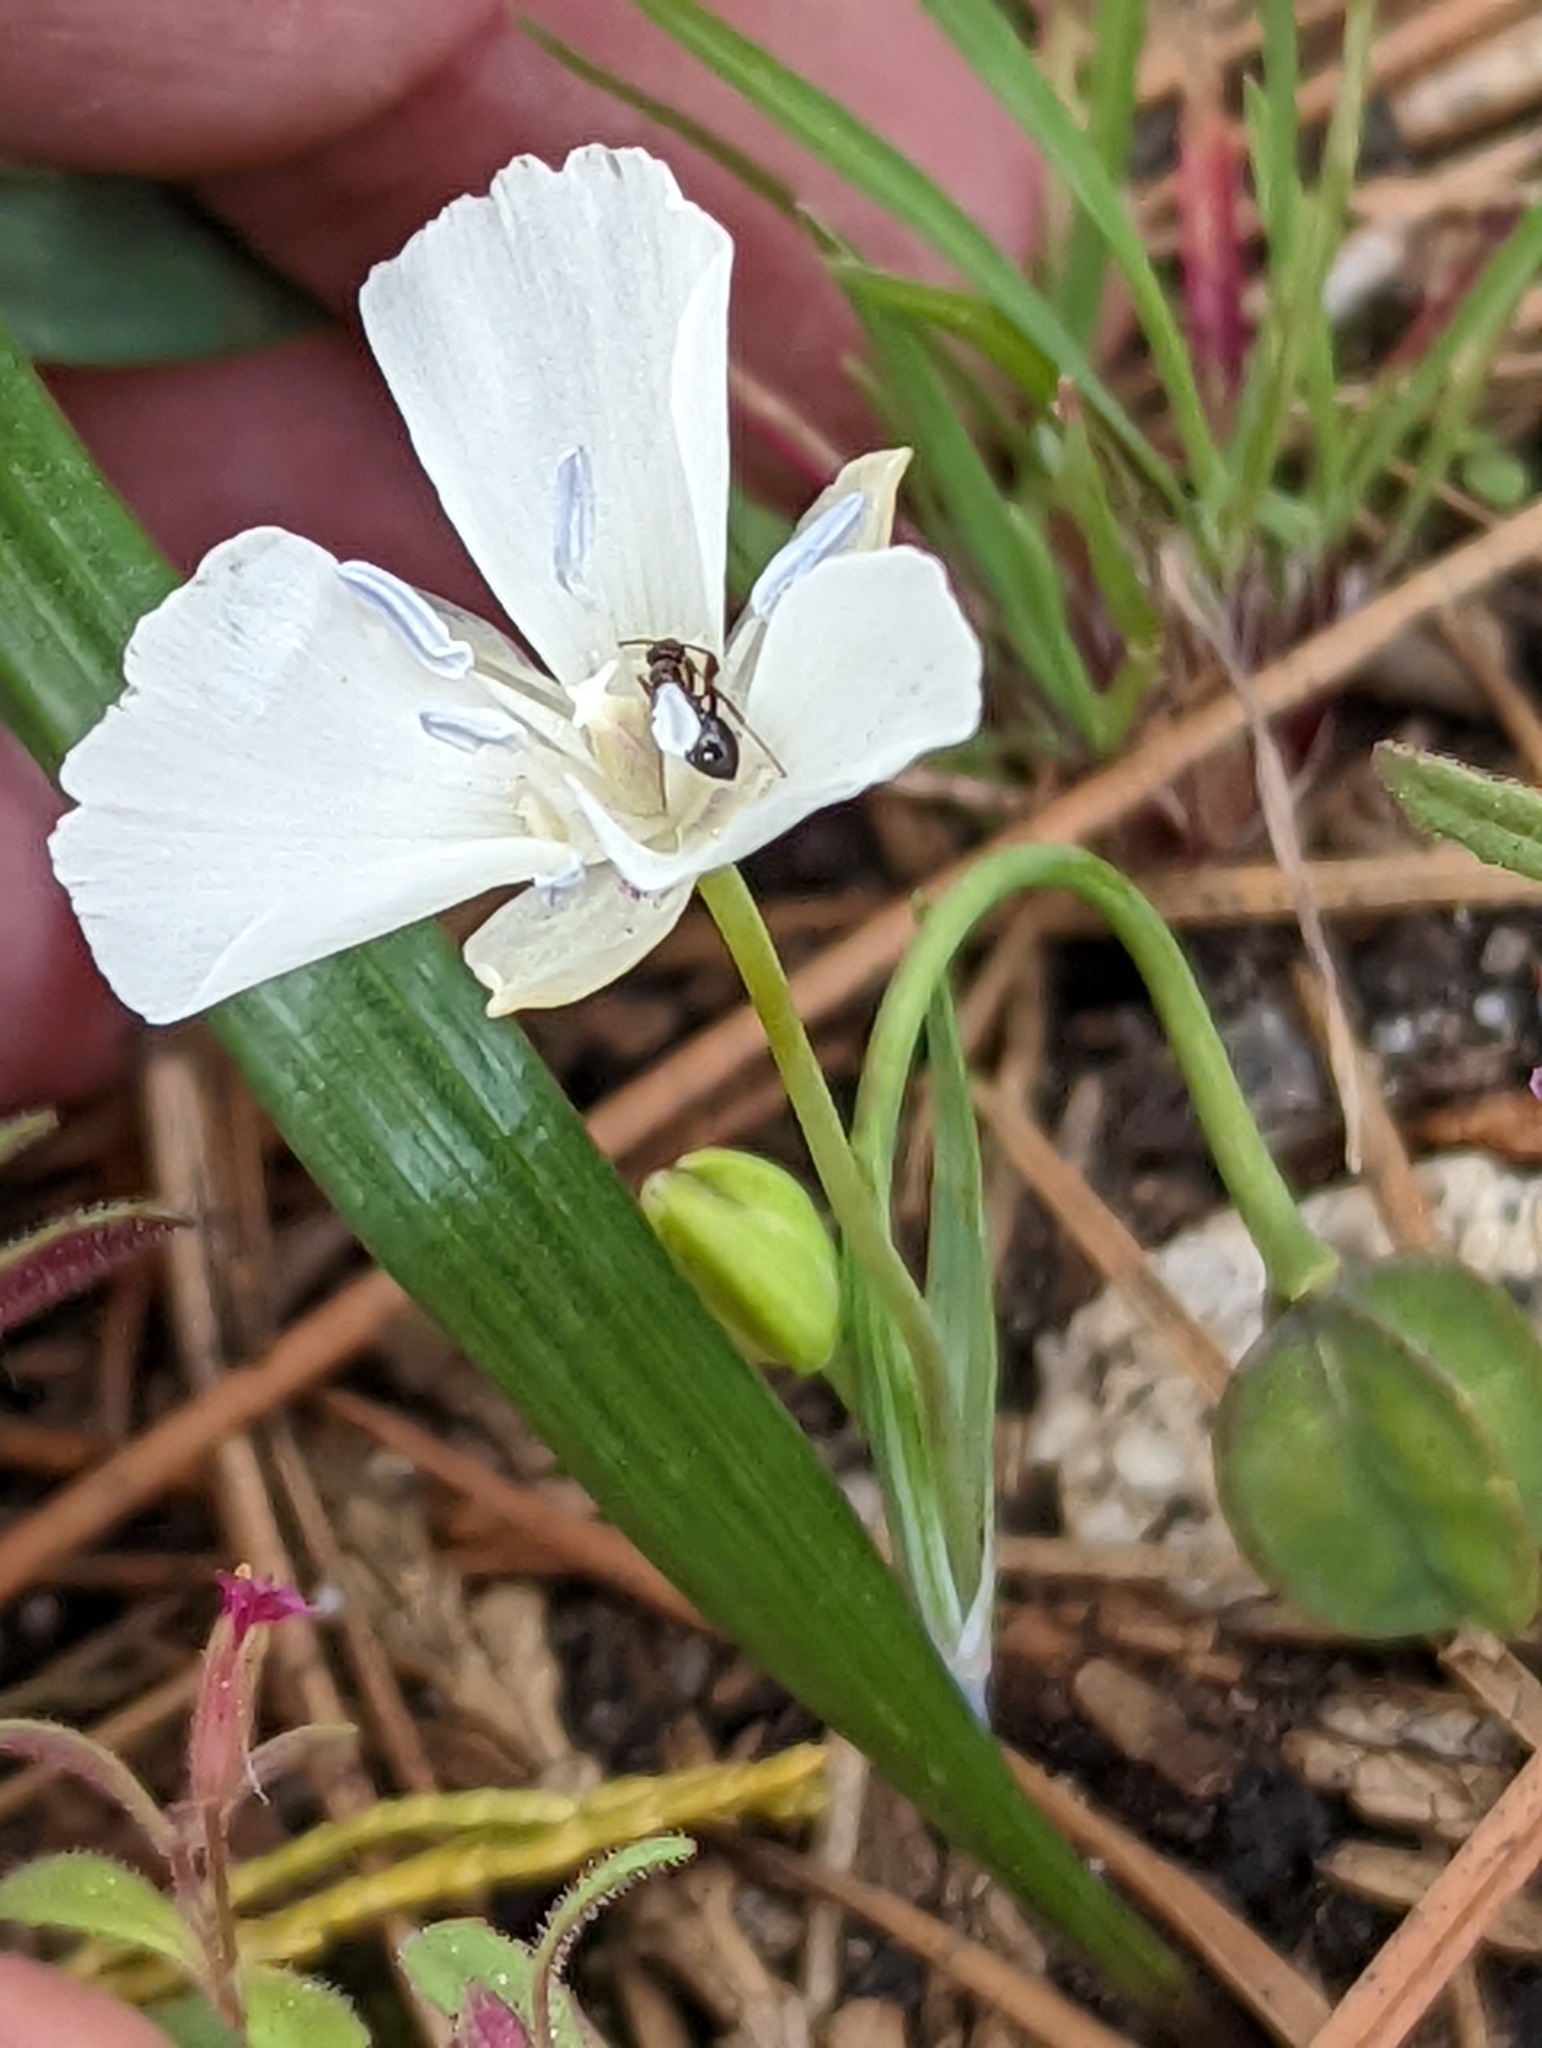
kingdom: Plantae
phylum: Tracheophyta
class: Liliopsida
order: Liliales
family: Liliaceae
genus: Calochortus
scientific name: Calochortus minimus
